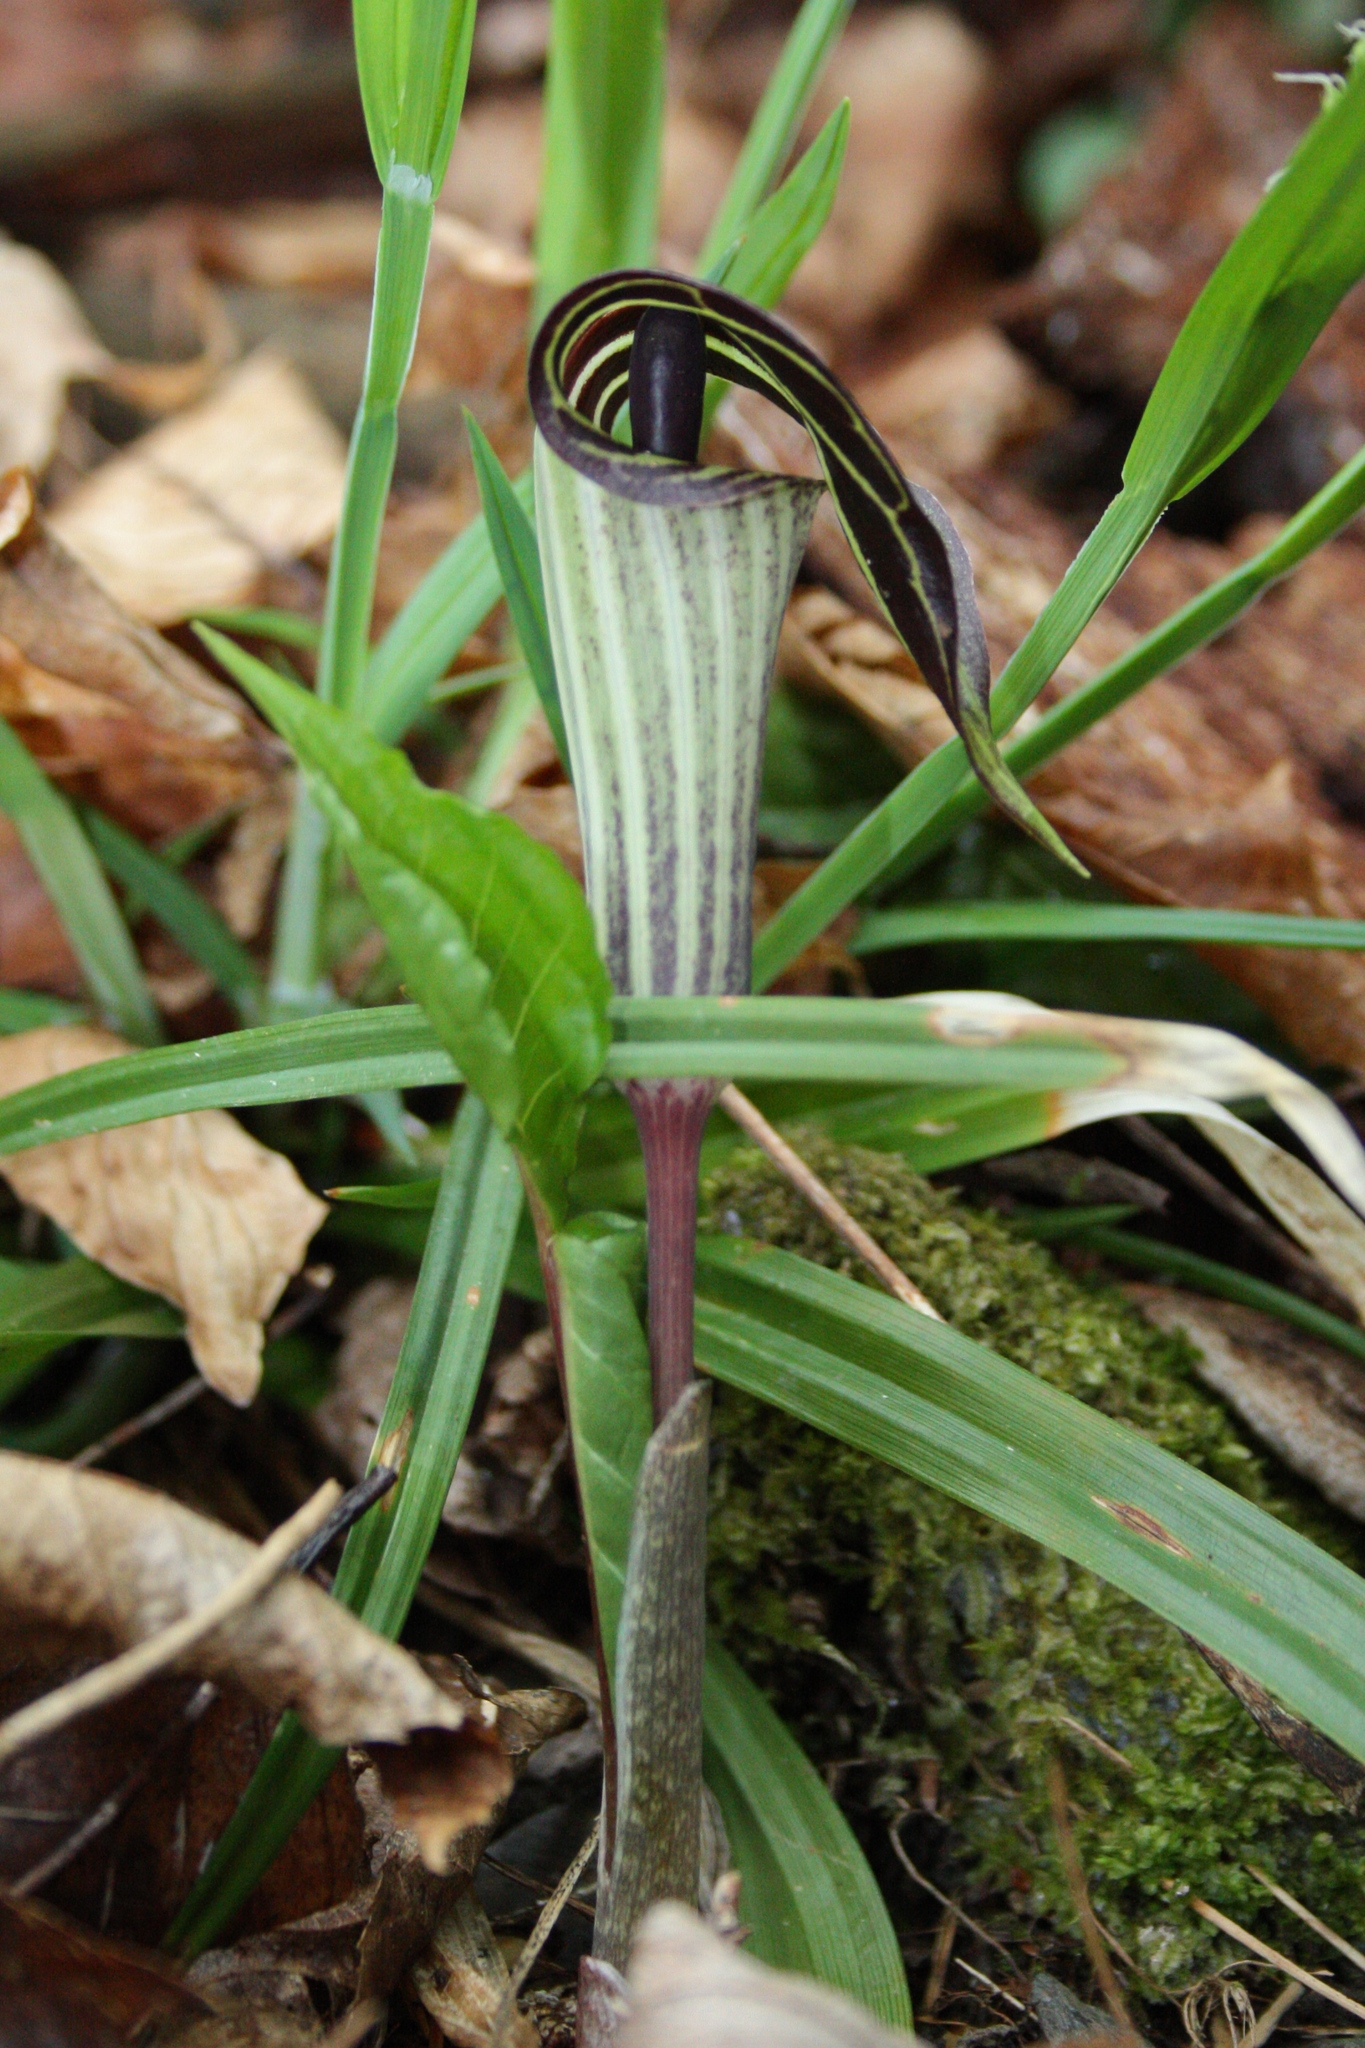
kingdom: Plantae
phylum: Tracheophyta
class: Liliopsida
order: Alismatales
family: Araceae
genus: Arisaema
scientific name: Arisaema triphyllum
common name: Jack-in-the-pulpit
